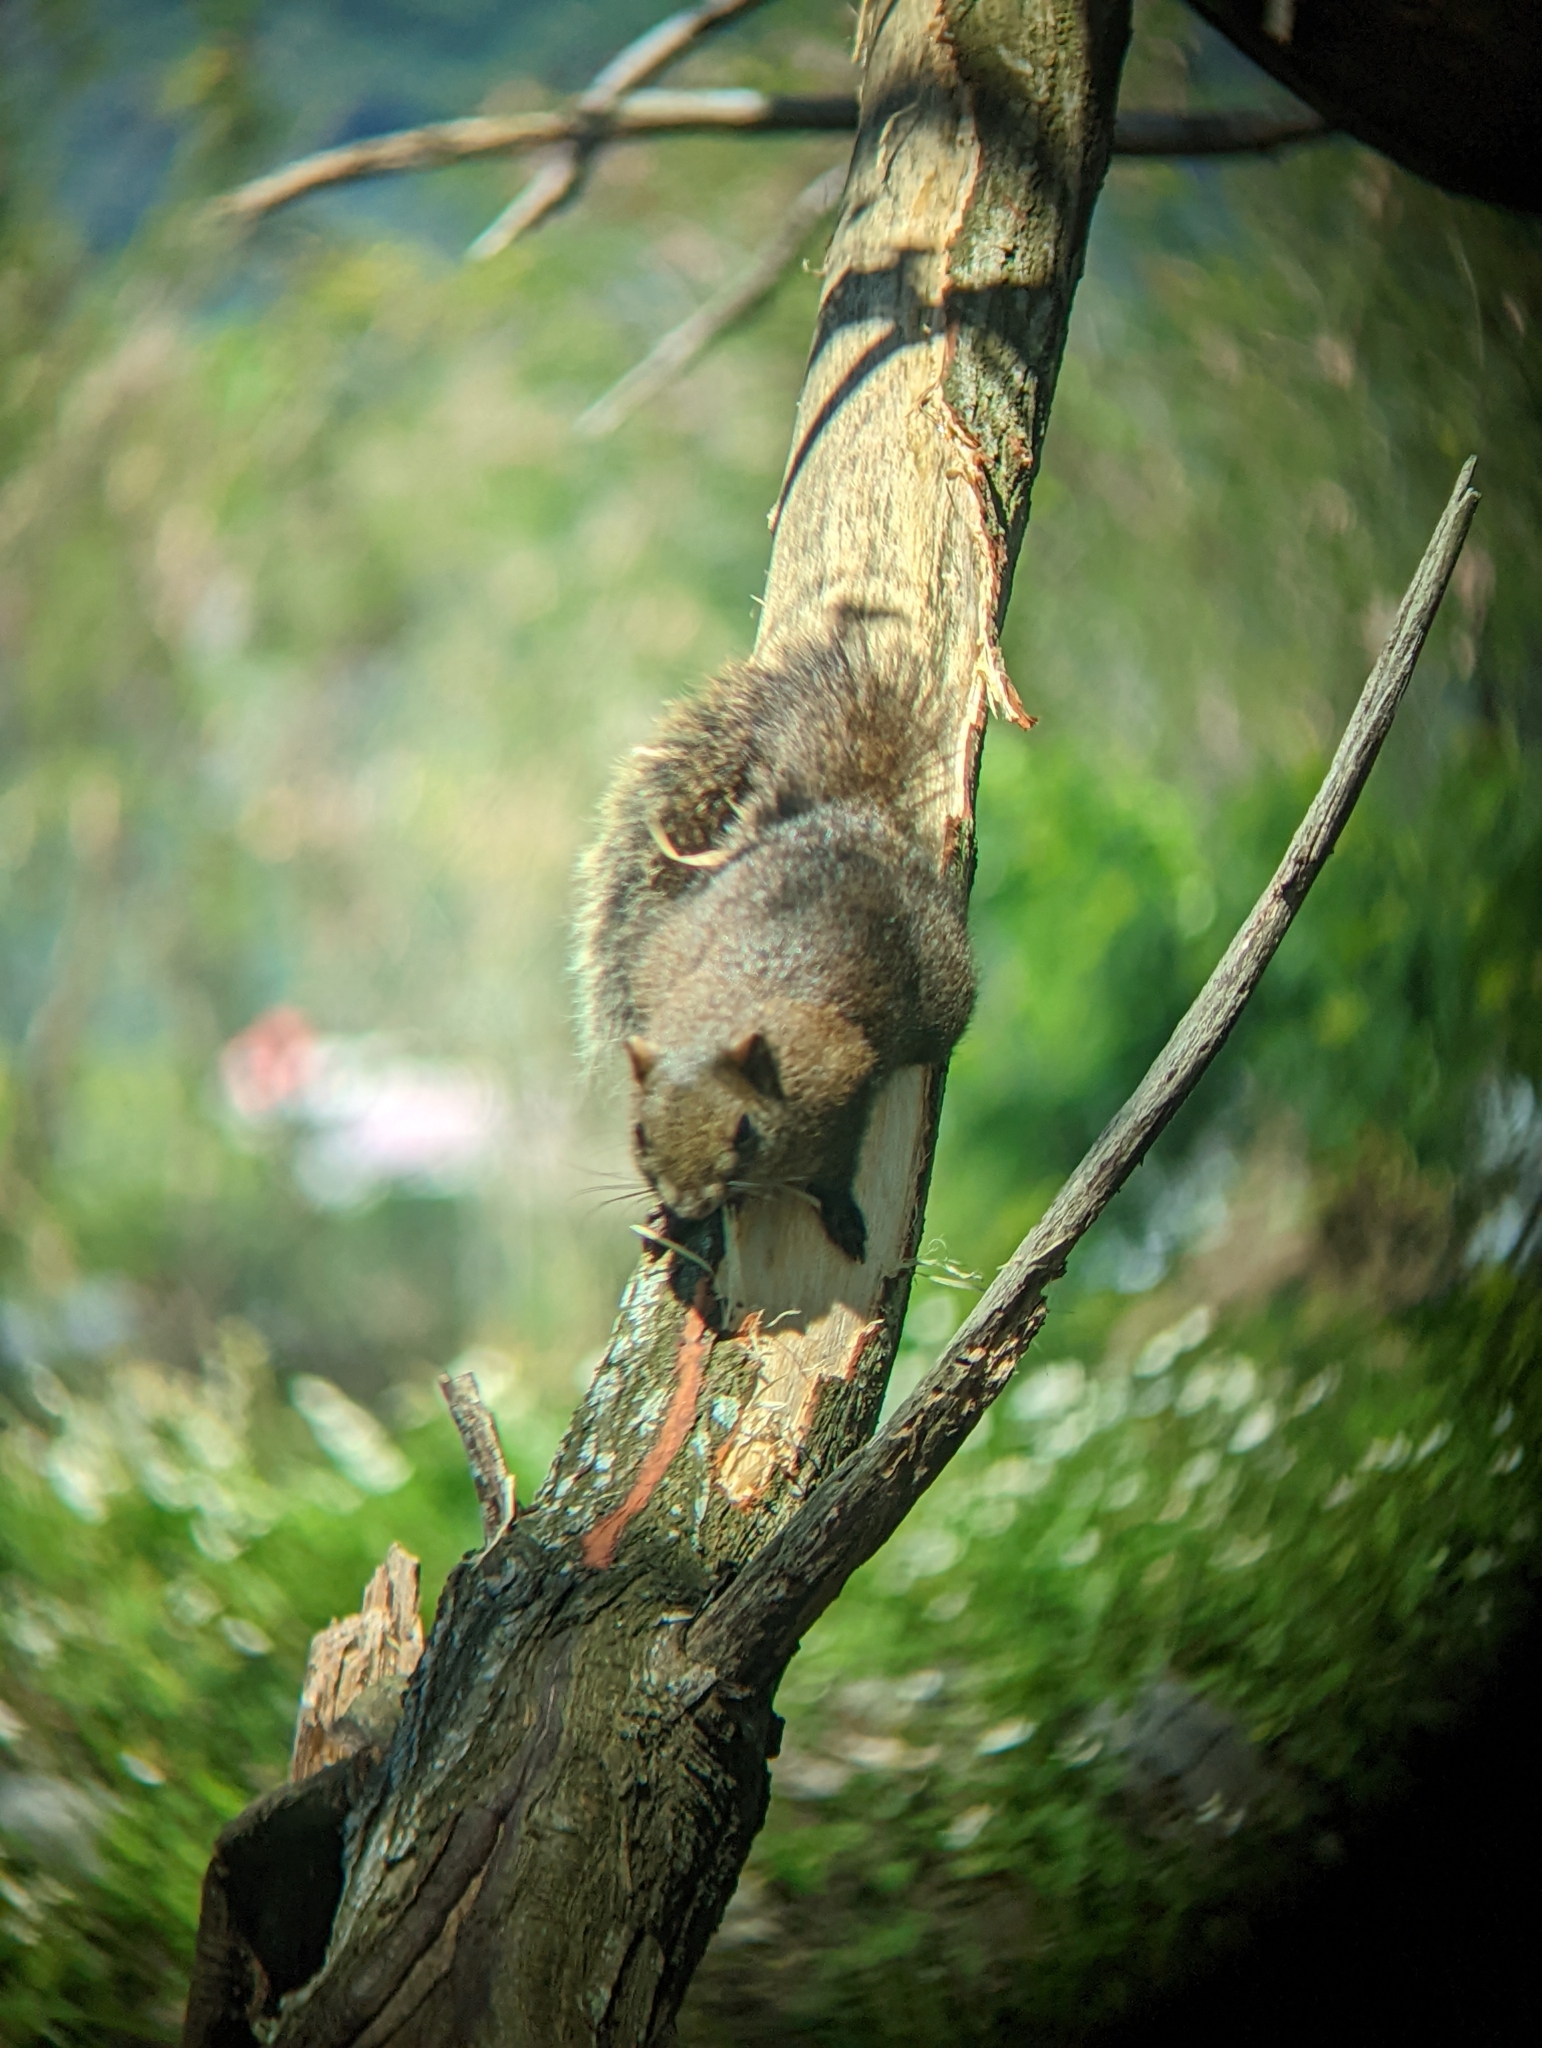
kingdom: Animalia
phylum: Chordata
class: Mammalia
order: Rodentia
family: Sciuridae
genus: Callosciurus
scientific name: Callosciurus erythraeus
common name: Pallas's squirrel
